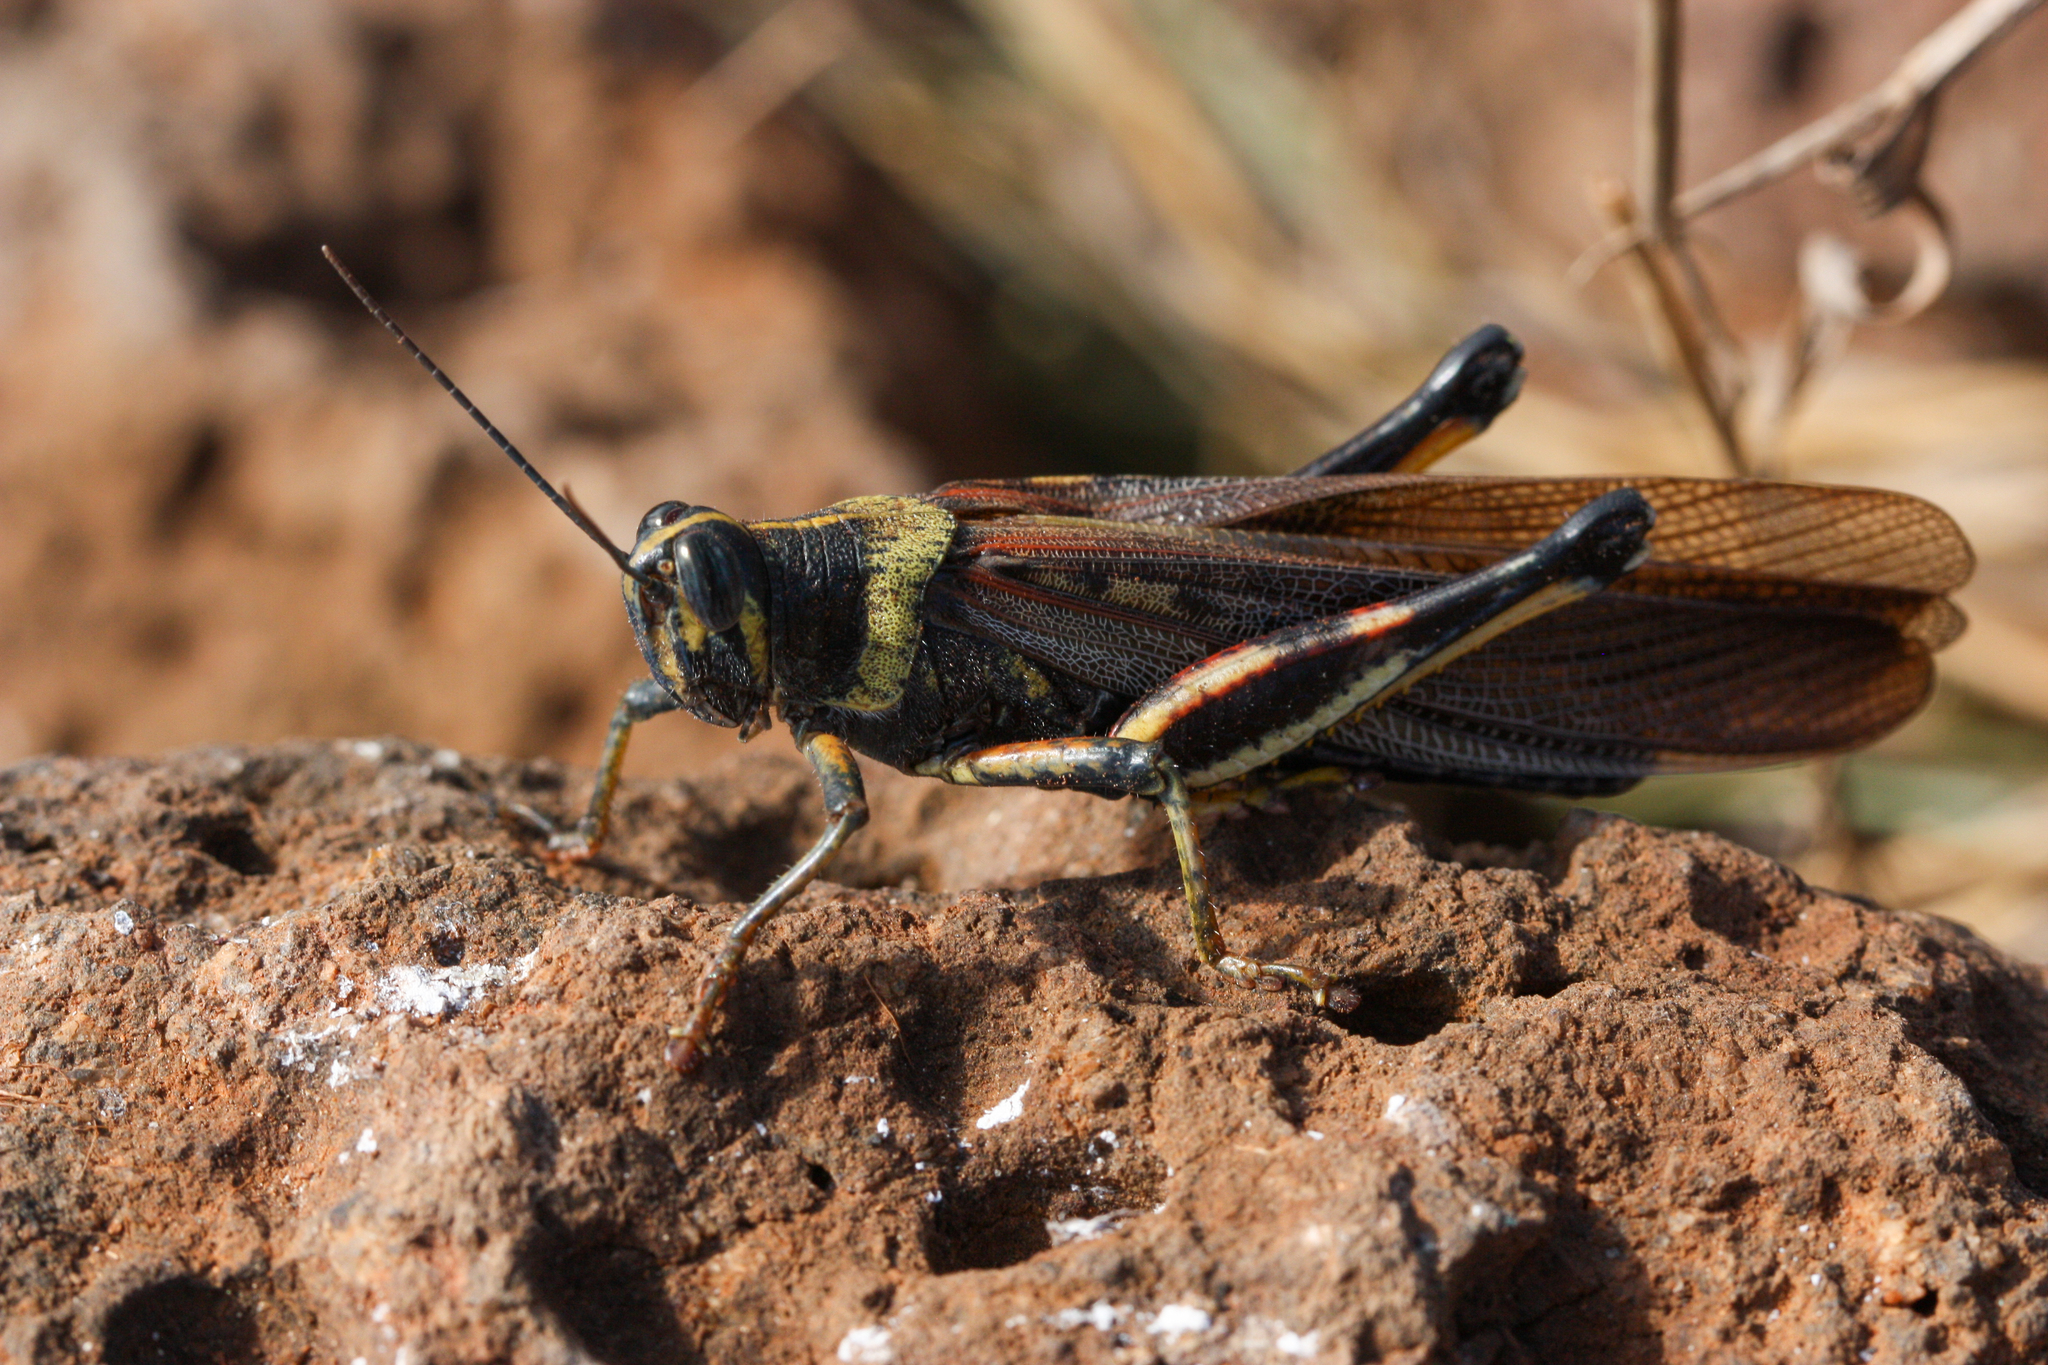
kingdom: Animalia
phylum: Arthropoda
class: Insecta
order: Orthoptera
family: Acrididae
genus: Schistocerca
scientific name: Schistocerca melanocera
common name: Large painted locust
